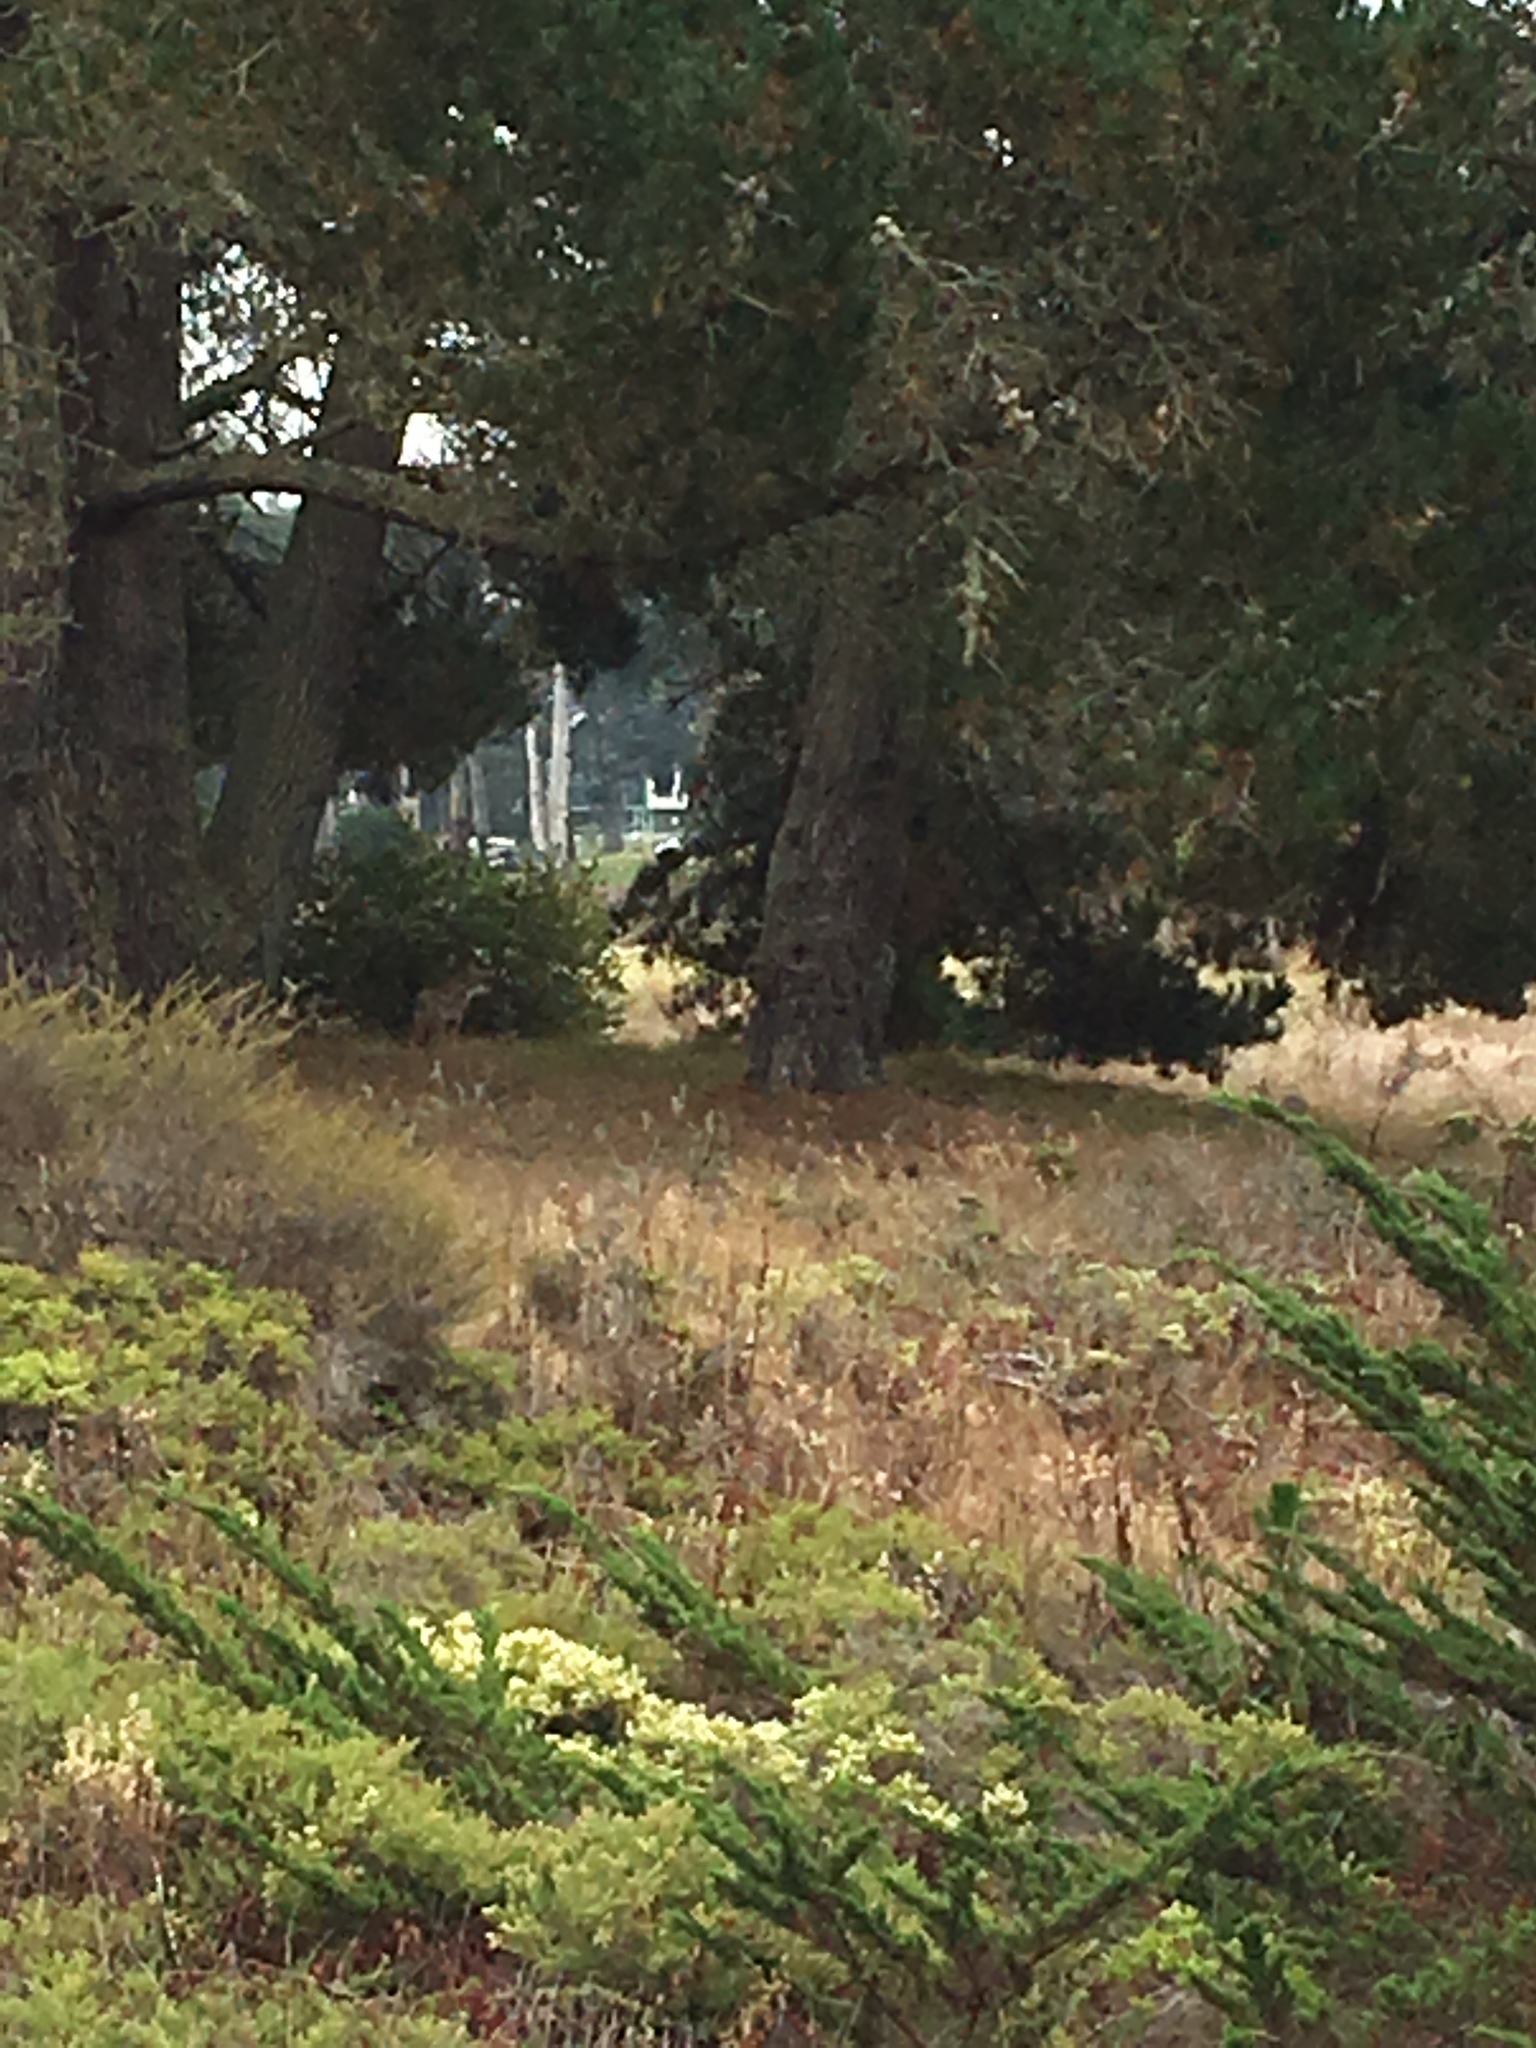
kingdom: Animalia
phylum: Chordata
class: Mammalia
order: Carnivora
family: Canidae
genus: Canis
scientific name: Canis latrans
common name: Coyote
